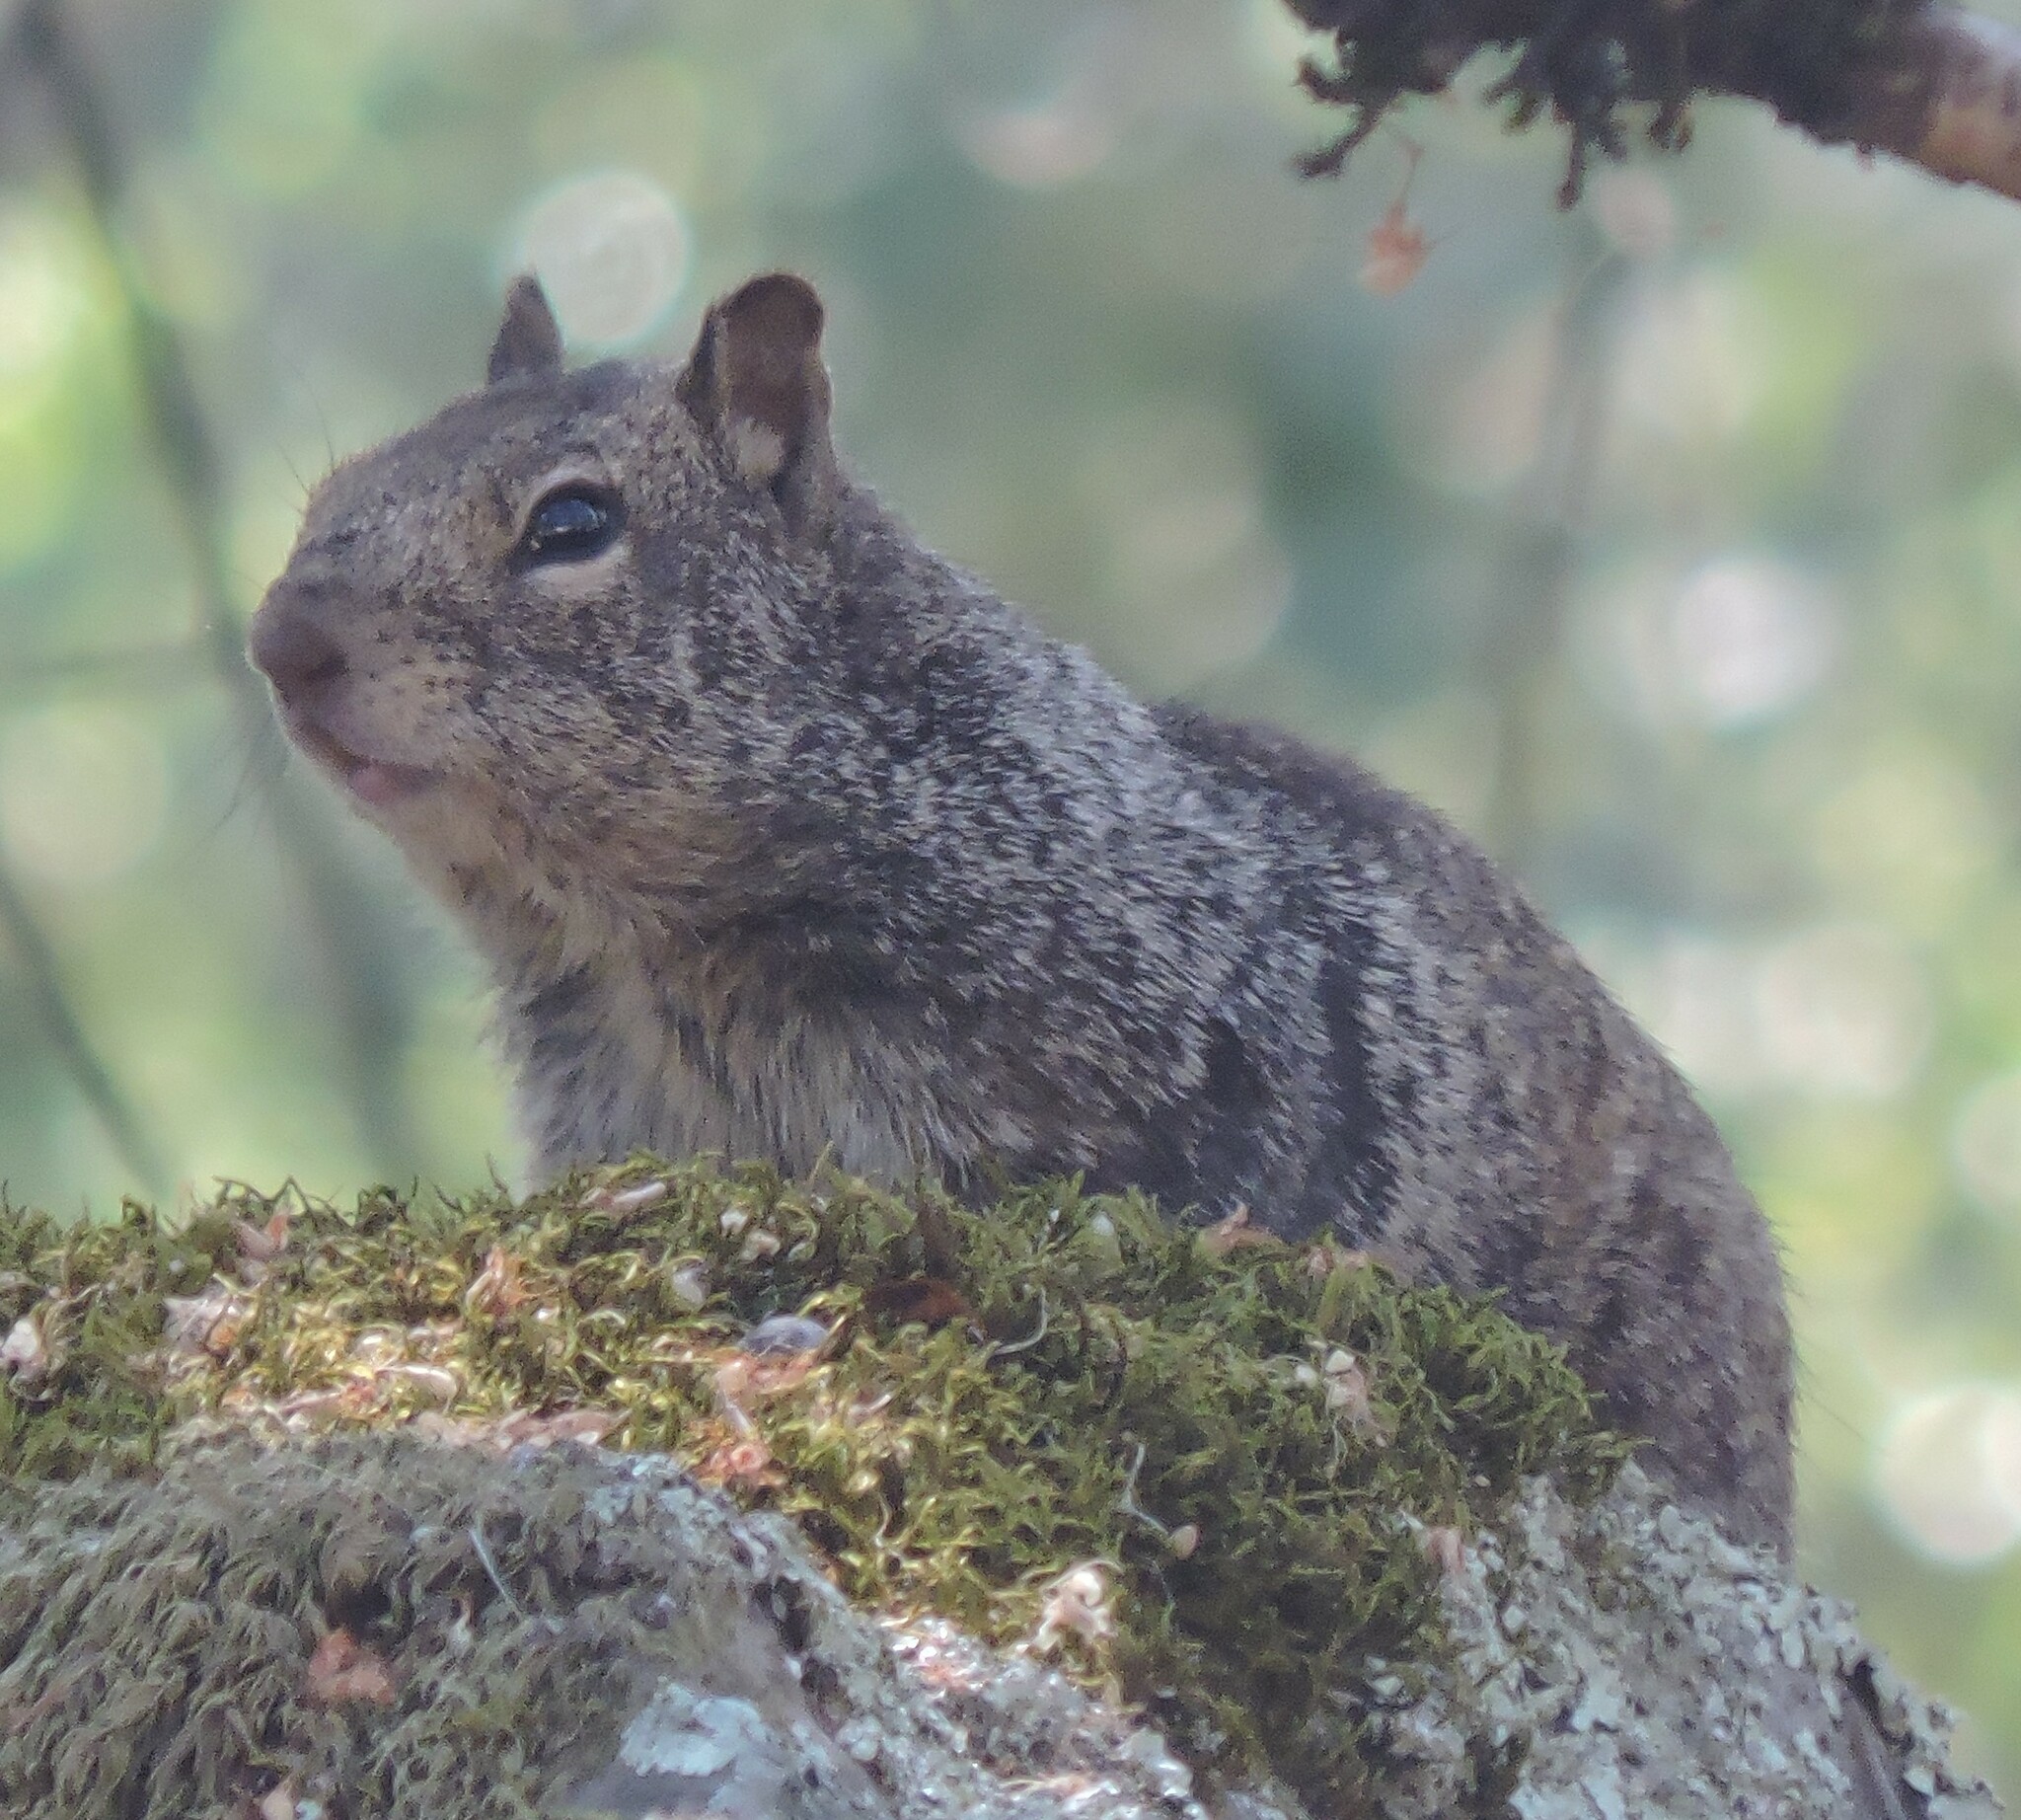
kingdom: Animalia
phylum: Chordata
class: Mammalia
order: Rodentia
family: Sciuridae
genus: Otospermophilus
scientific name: Otospermophilus beecheyi
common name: California ground squirrel
